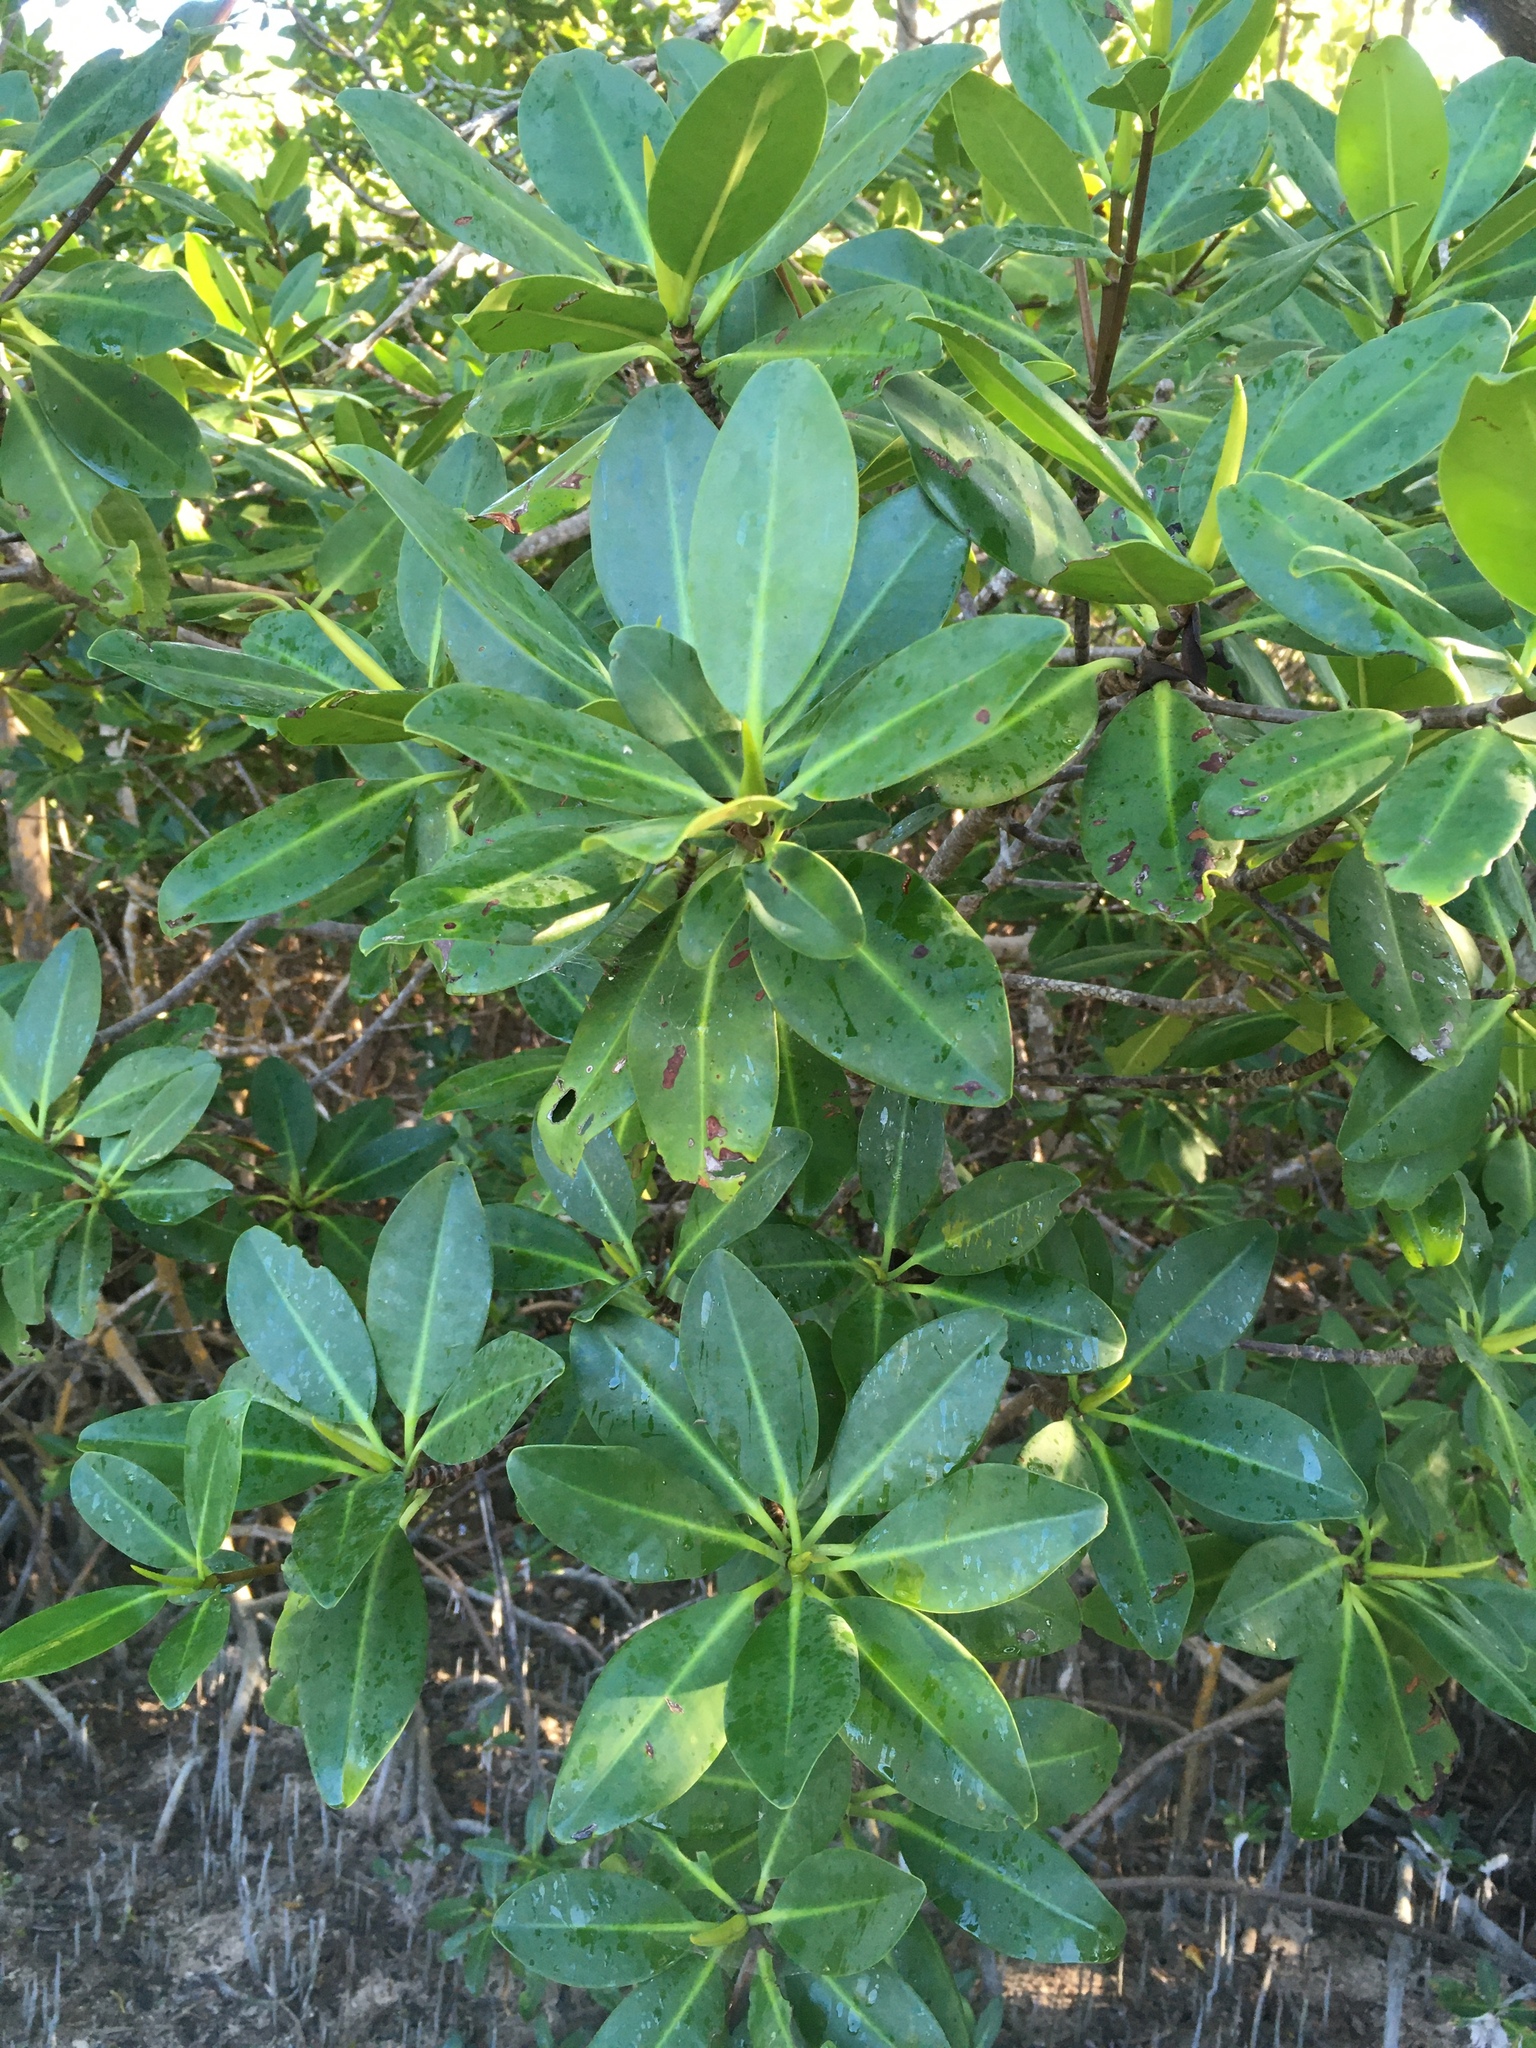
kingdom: Plantae
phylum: Tracheophyta
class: Magnoliopsida
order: Malpighiales
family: Rhizophoraceae
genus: Rhizophora
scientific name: Rhizophora mangle
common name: Red mangrove
